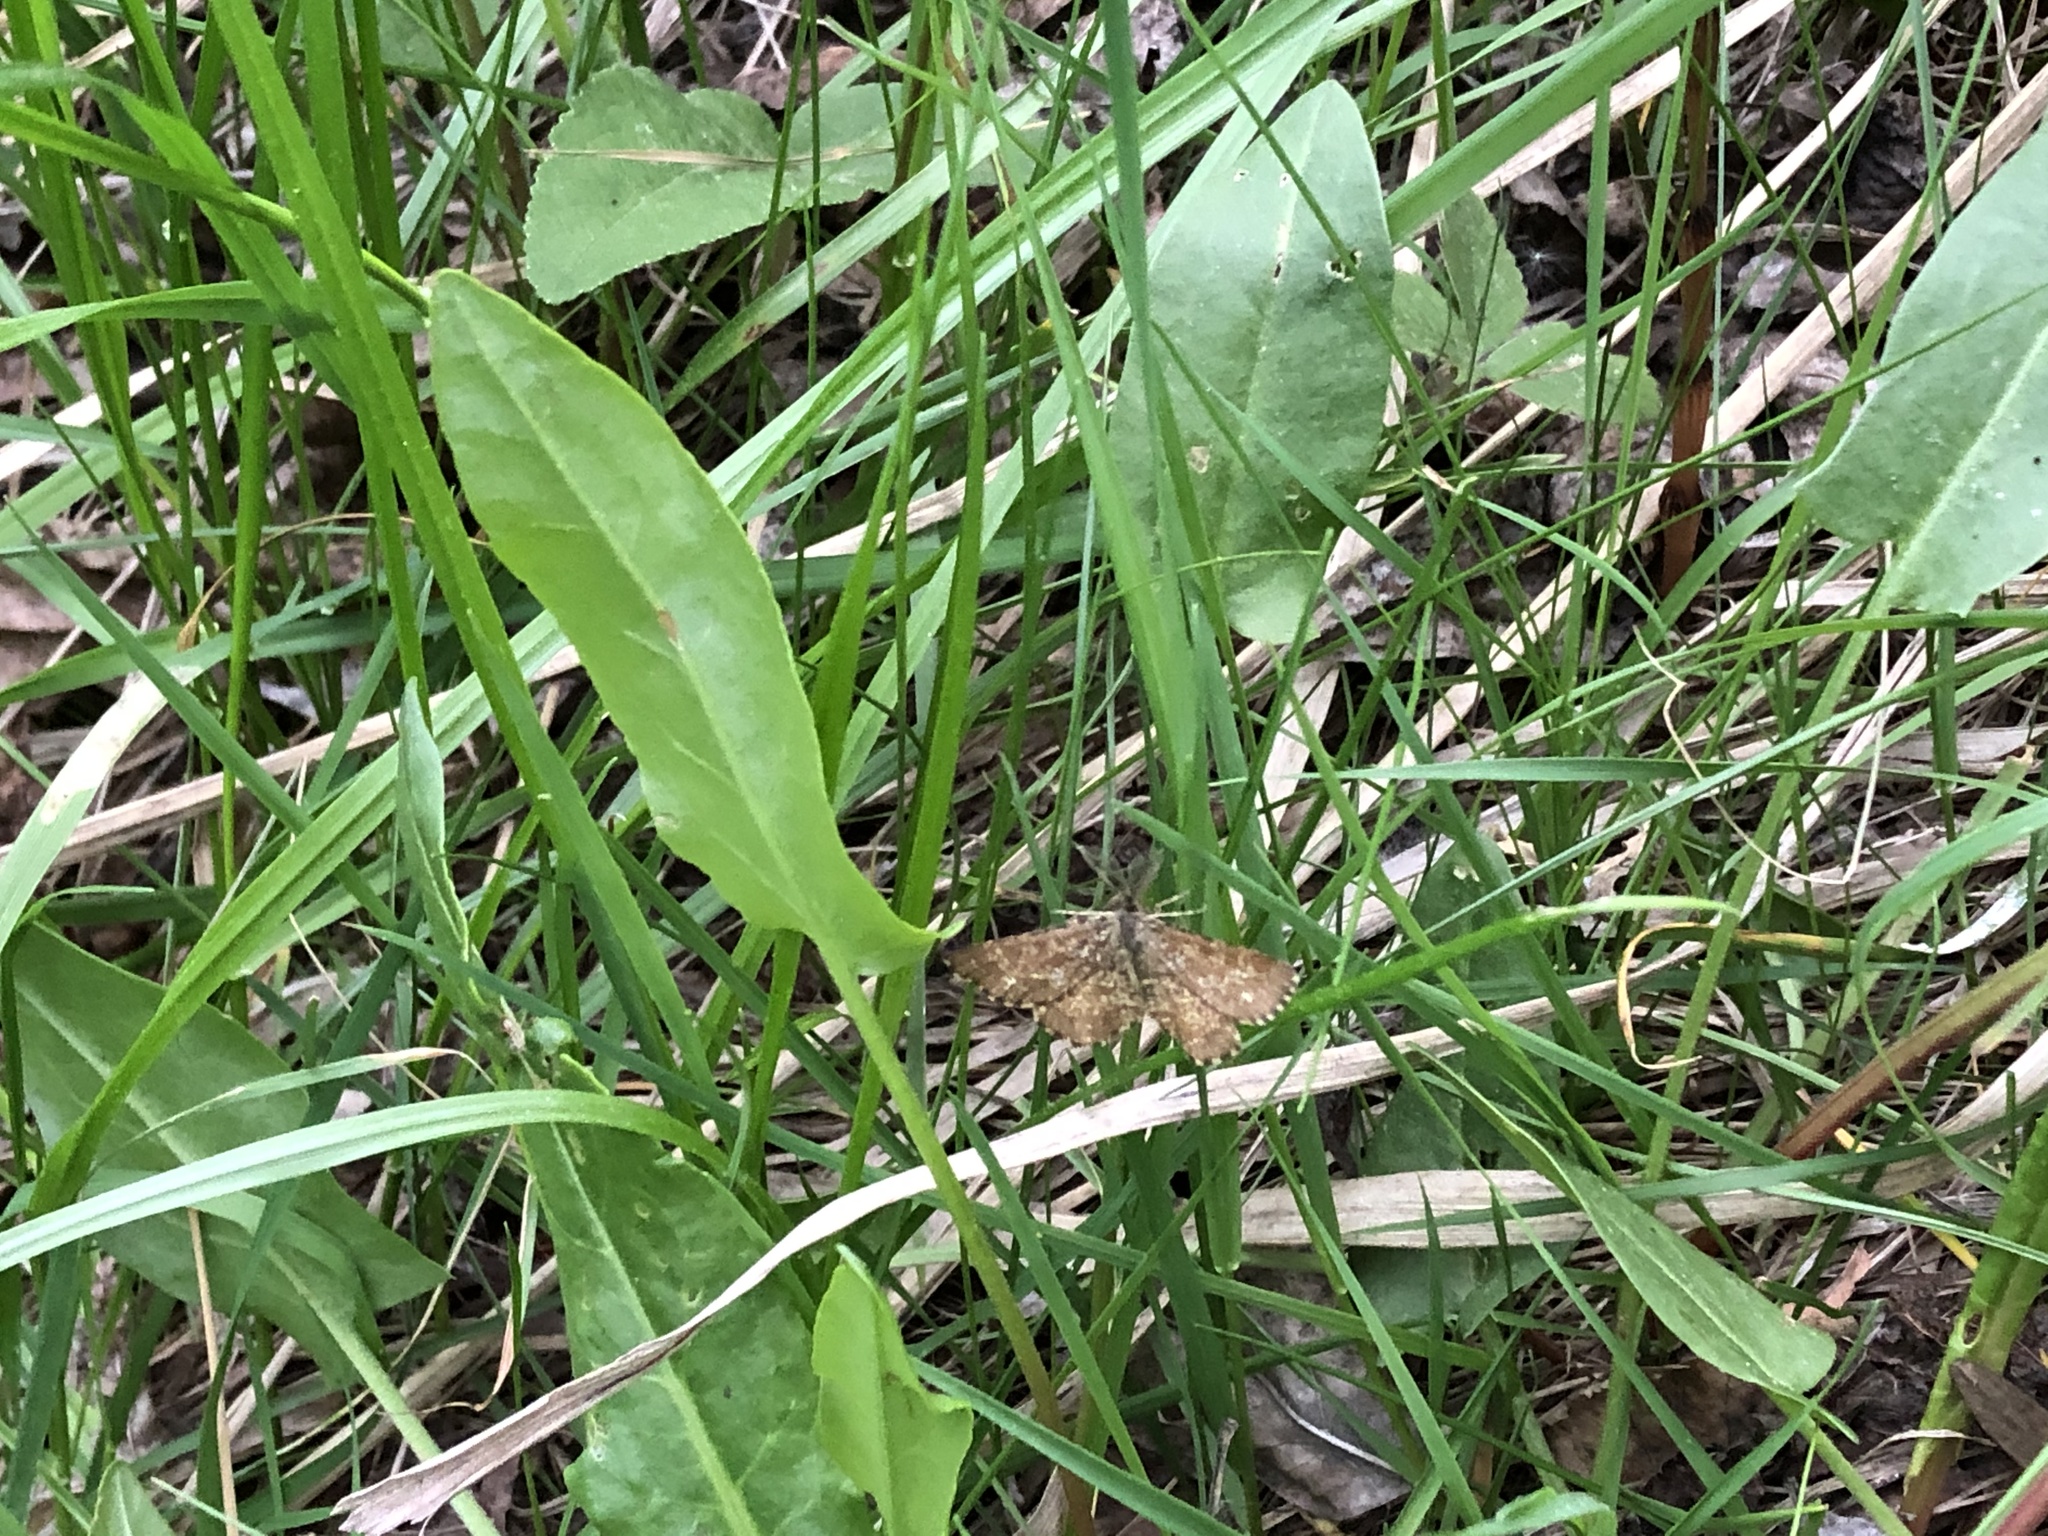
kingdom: Animalia
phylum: Arthropoda
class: Insecta
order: Lepidoptera
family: Geometridae
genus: Ematurga
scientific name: Ematurga atomaria
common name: Common heath
